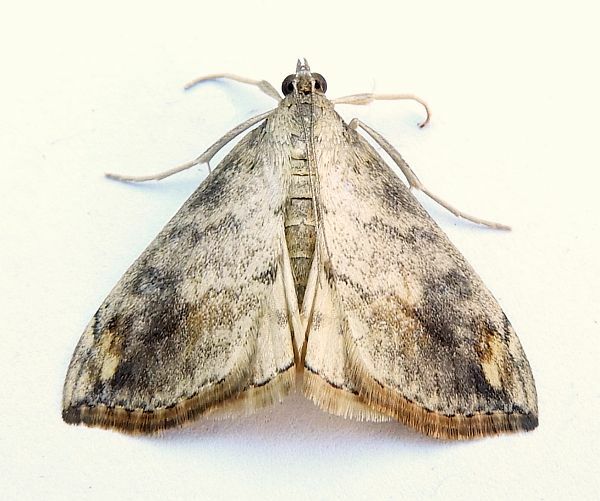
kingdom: Animalia
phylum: Arthropoda
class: Insecta
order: Lepidoptera
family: Crambidae
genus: Evergestis
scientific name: Evergestis rimosalis
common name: Cross-striped cabbageworm moth
